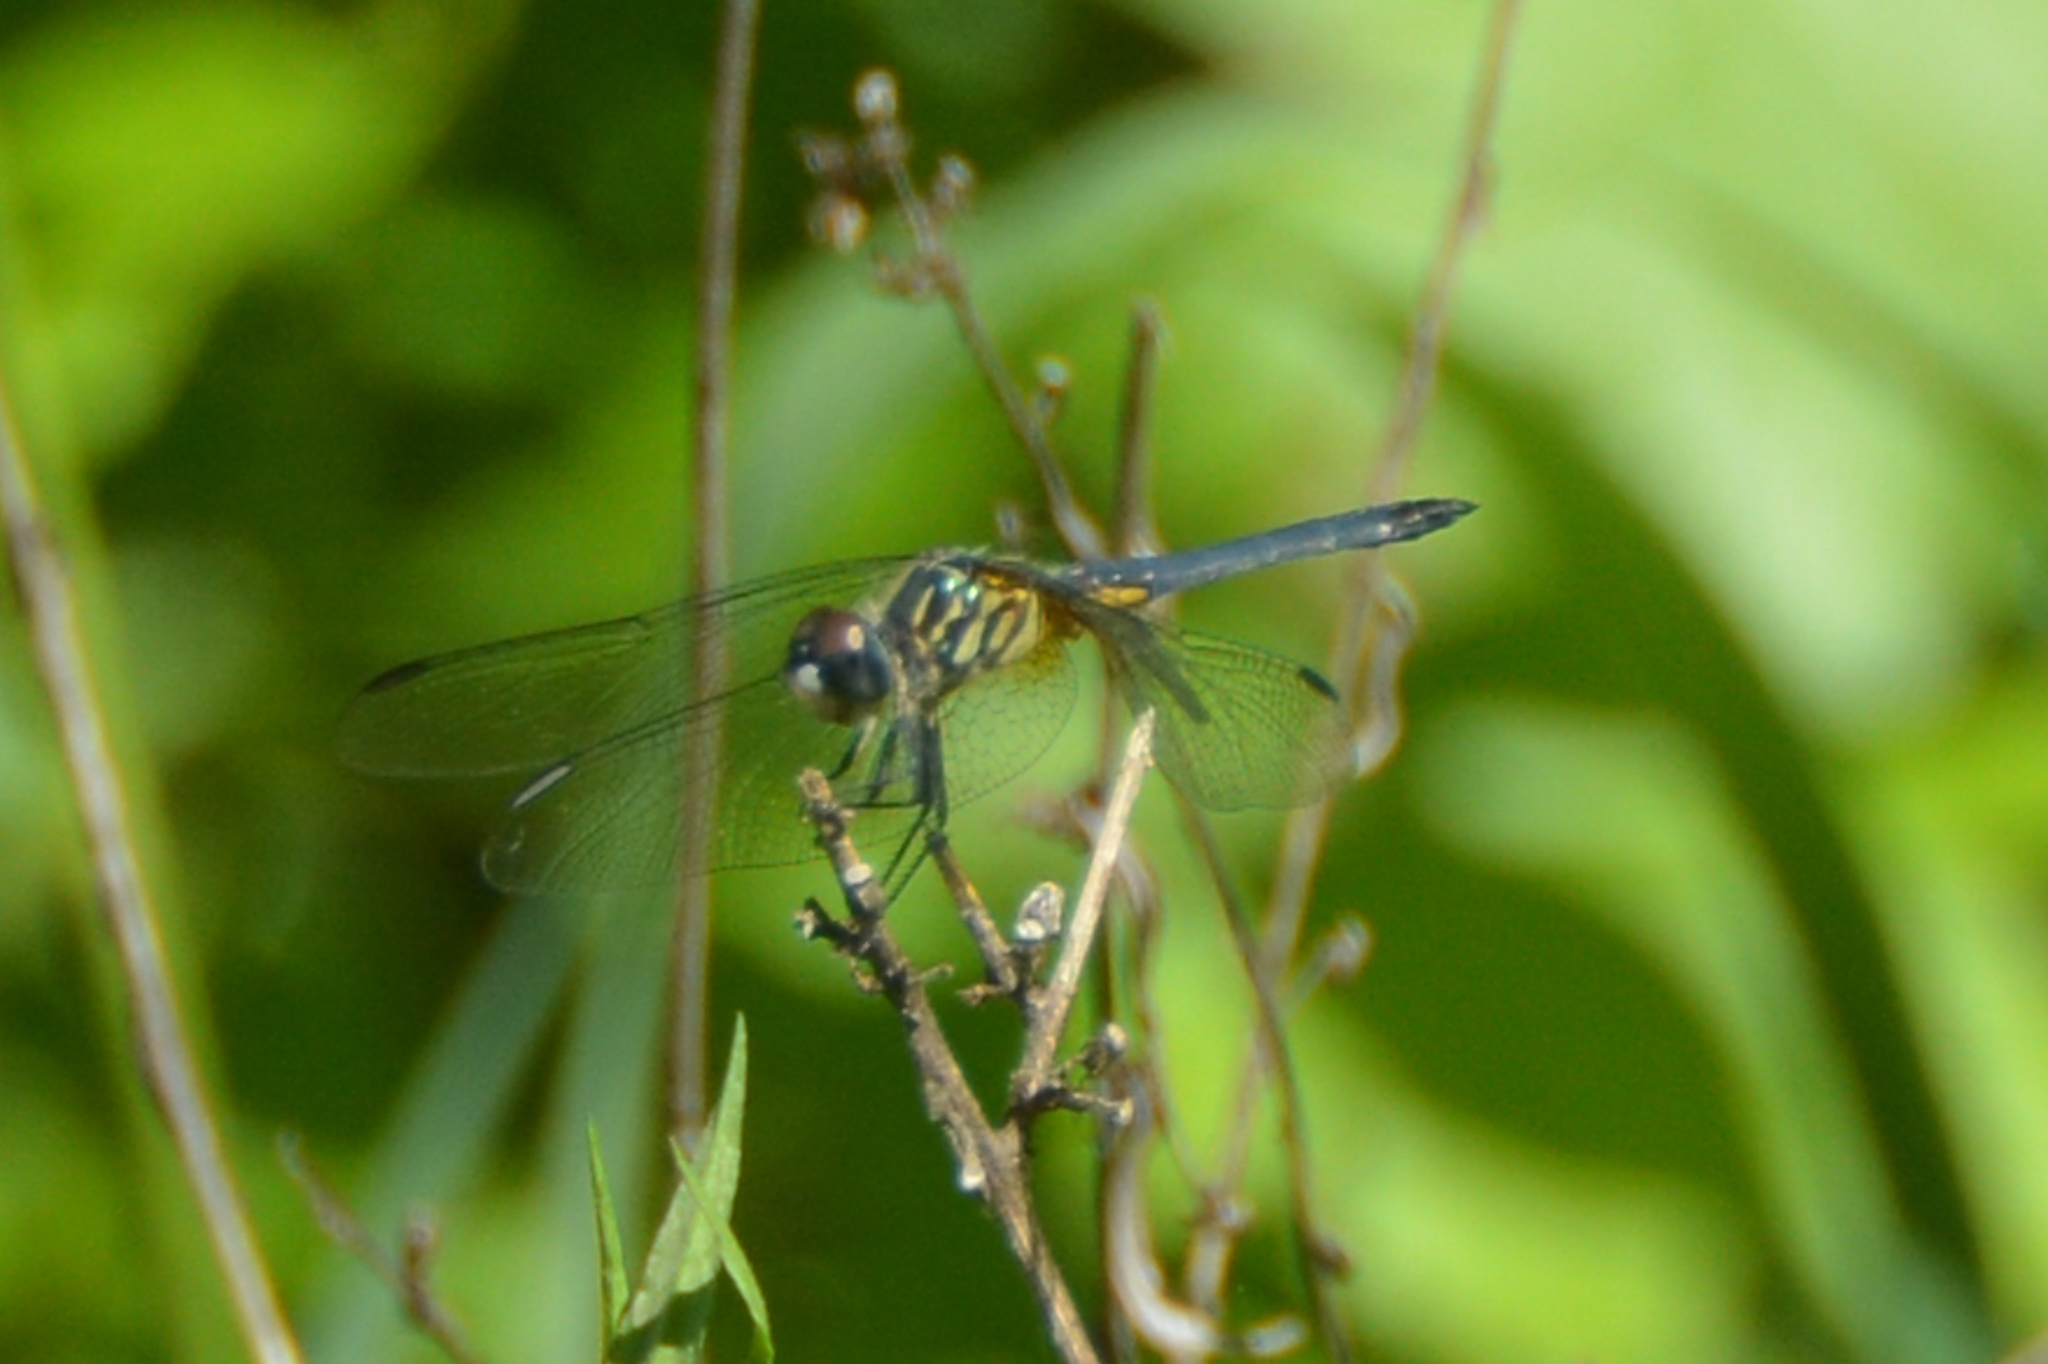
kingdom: Animalia
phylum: Arthropoda
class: Insecta
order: Odonata
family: Libellulidae
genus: Pachydiplax
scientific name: Pachydiplax longipennis
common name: Blue dasher
